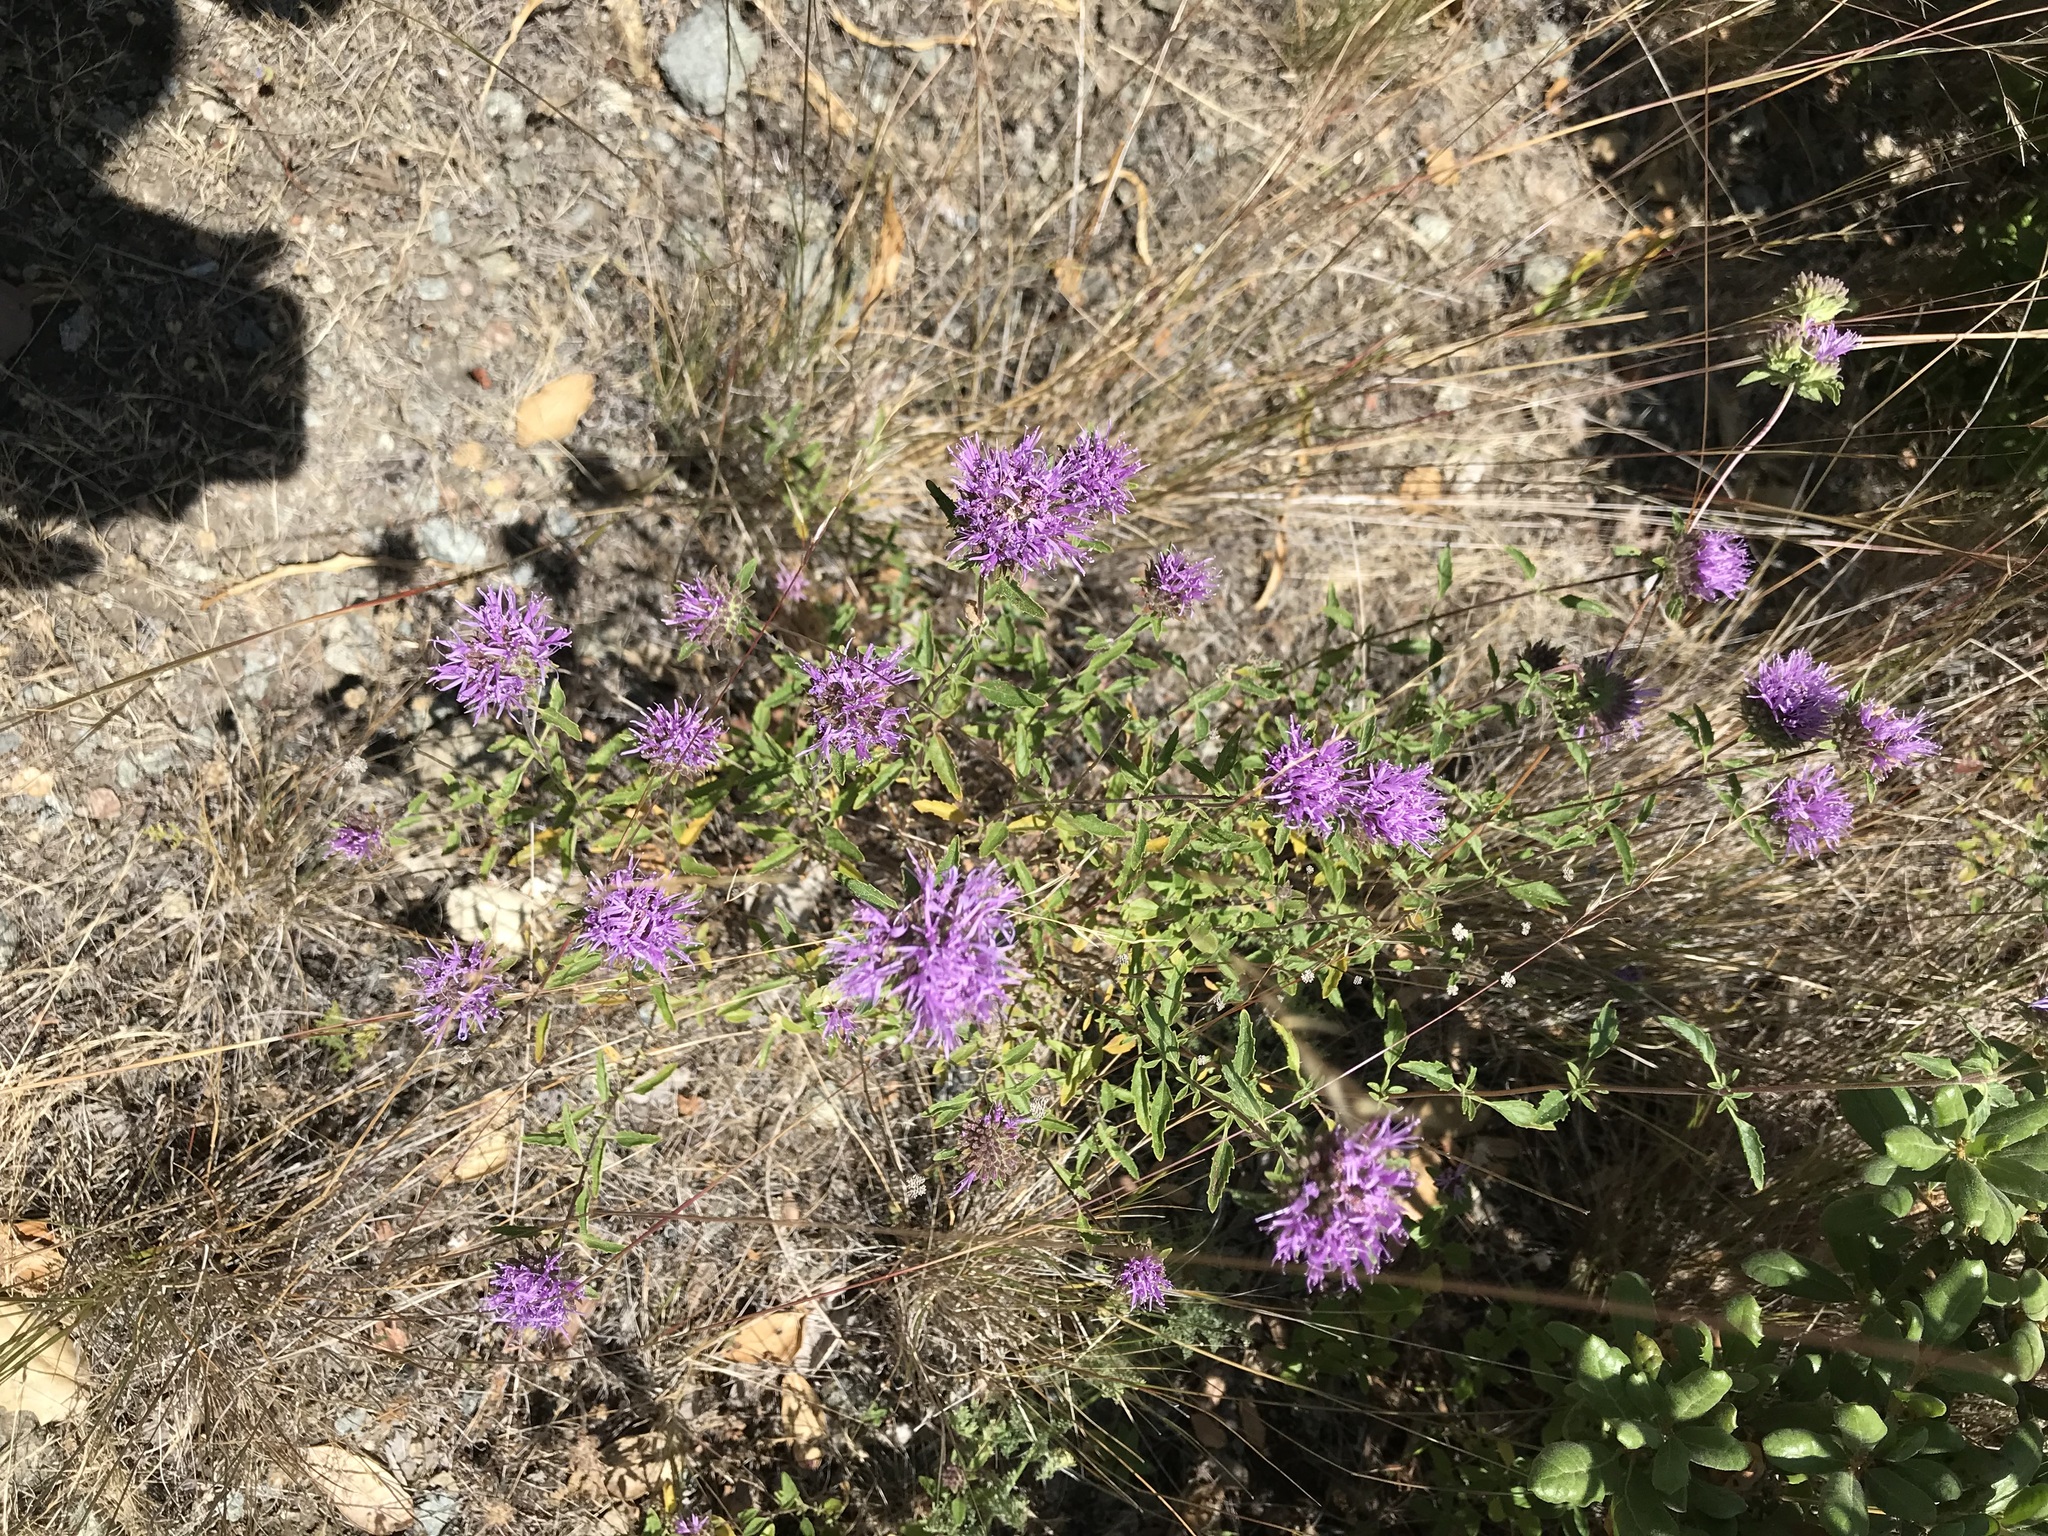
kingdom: Plantae
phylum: Tracheophyta
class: Magnoliopsida
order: Lamiales
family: Lamiaceae
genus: Monardella
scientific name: Monardella odoratissima
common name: Pacific monardella
